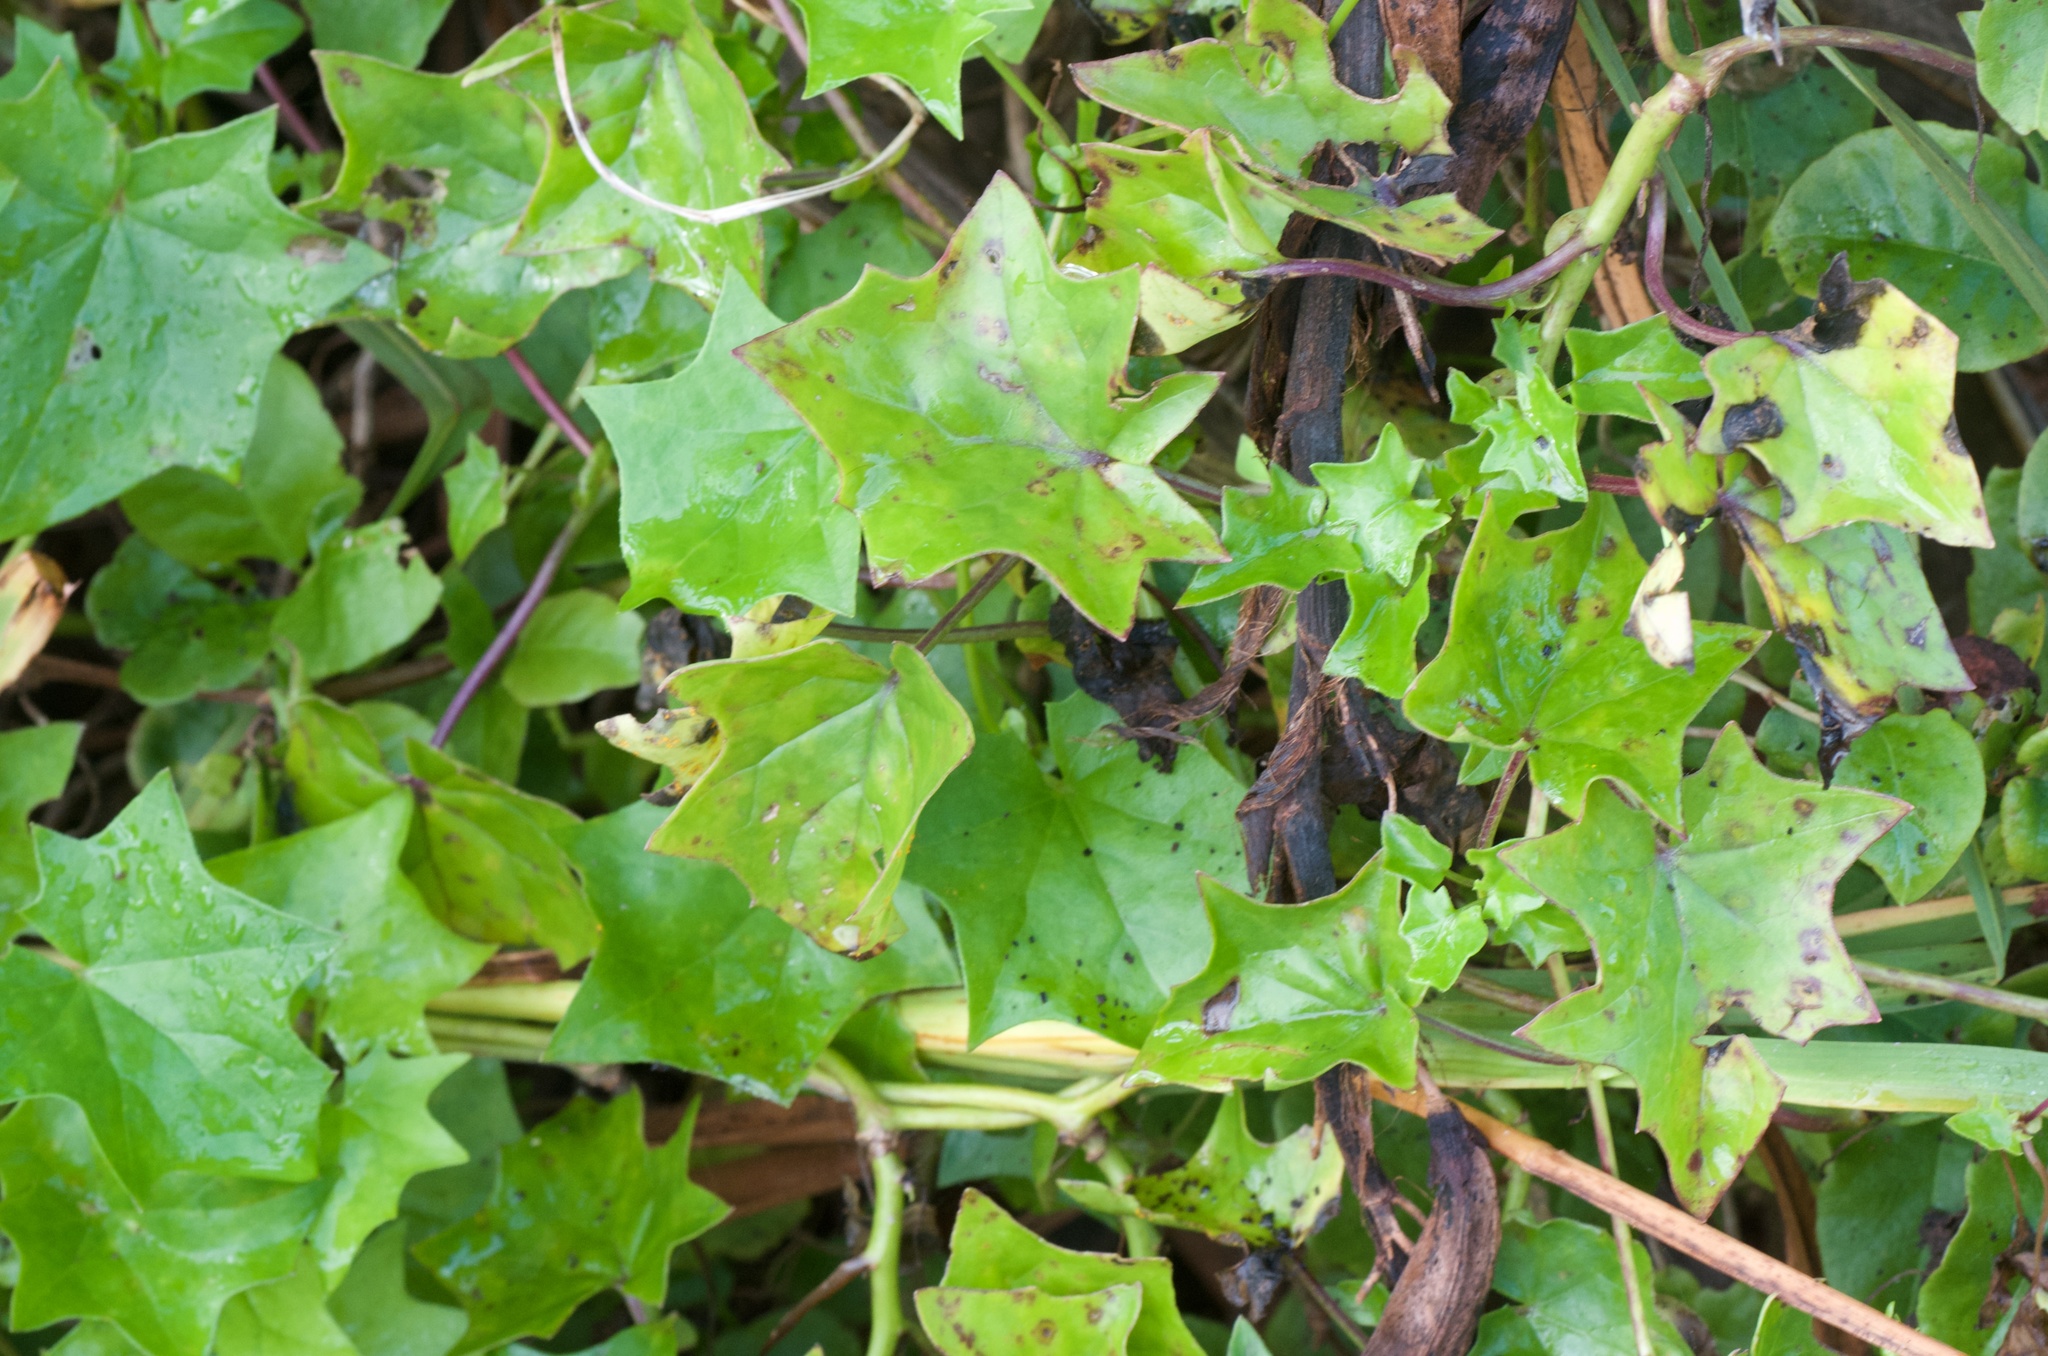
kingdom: Plantae
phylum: Tracheophyta
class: Magnoliopsida
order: Asterales
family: Asteraceae
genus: Delairea
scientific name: Delairea odorata
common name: Cape-ivy
